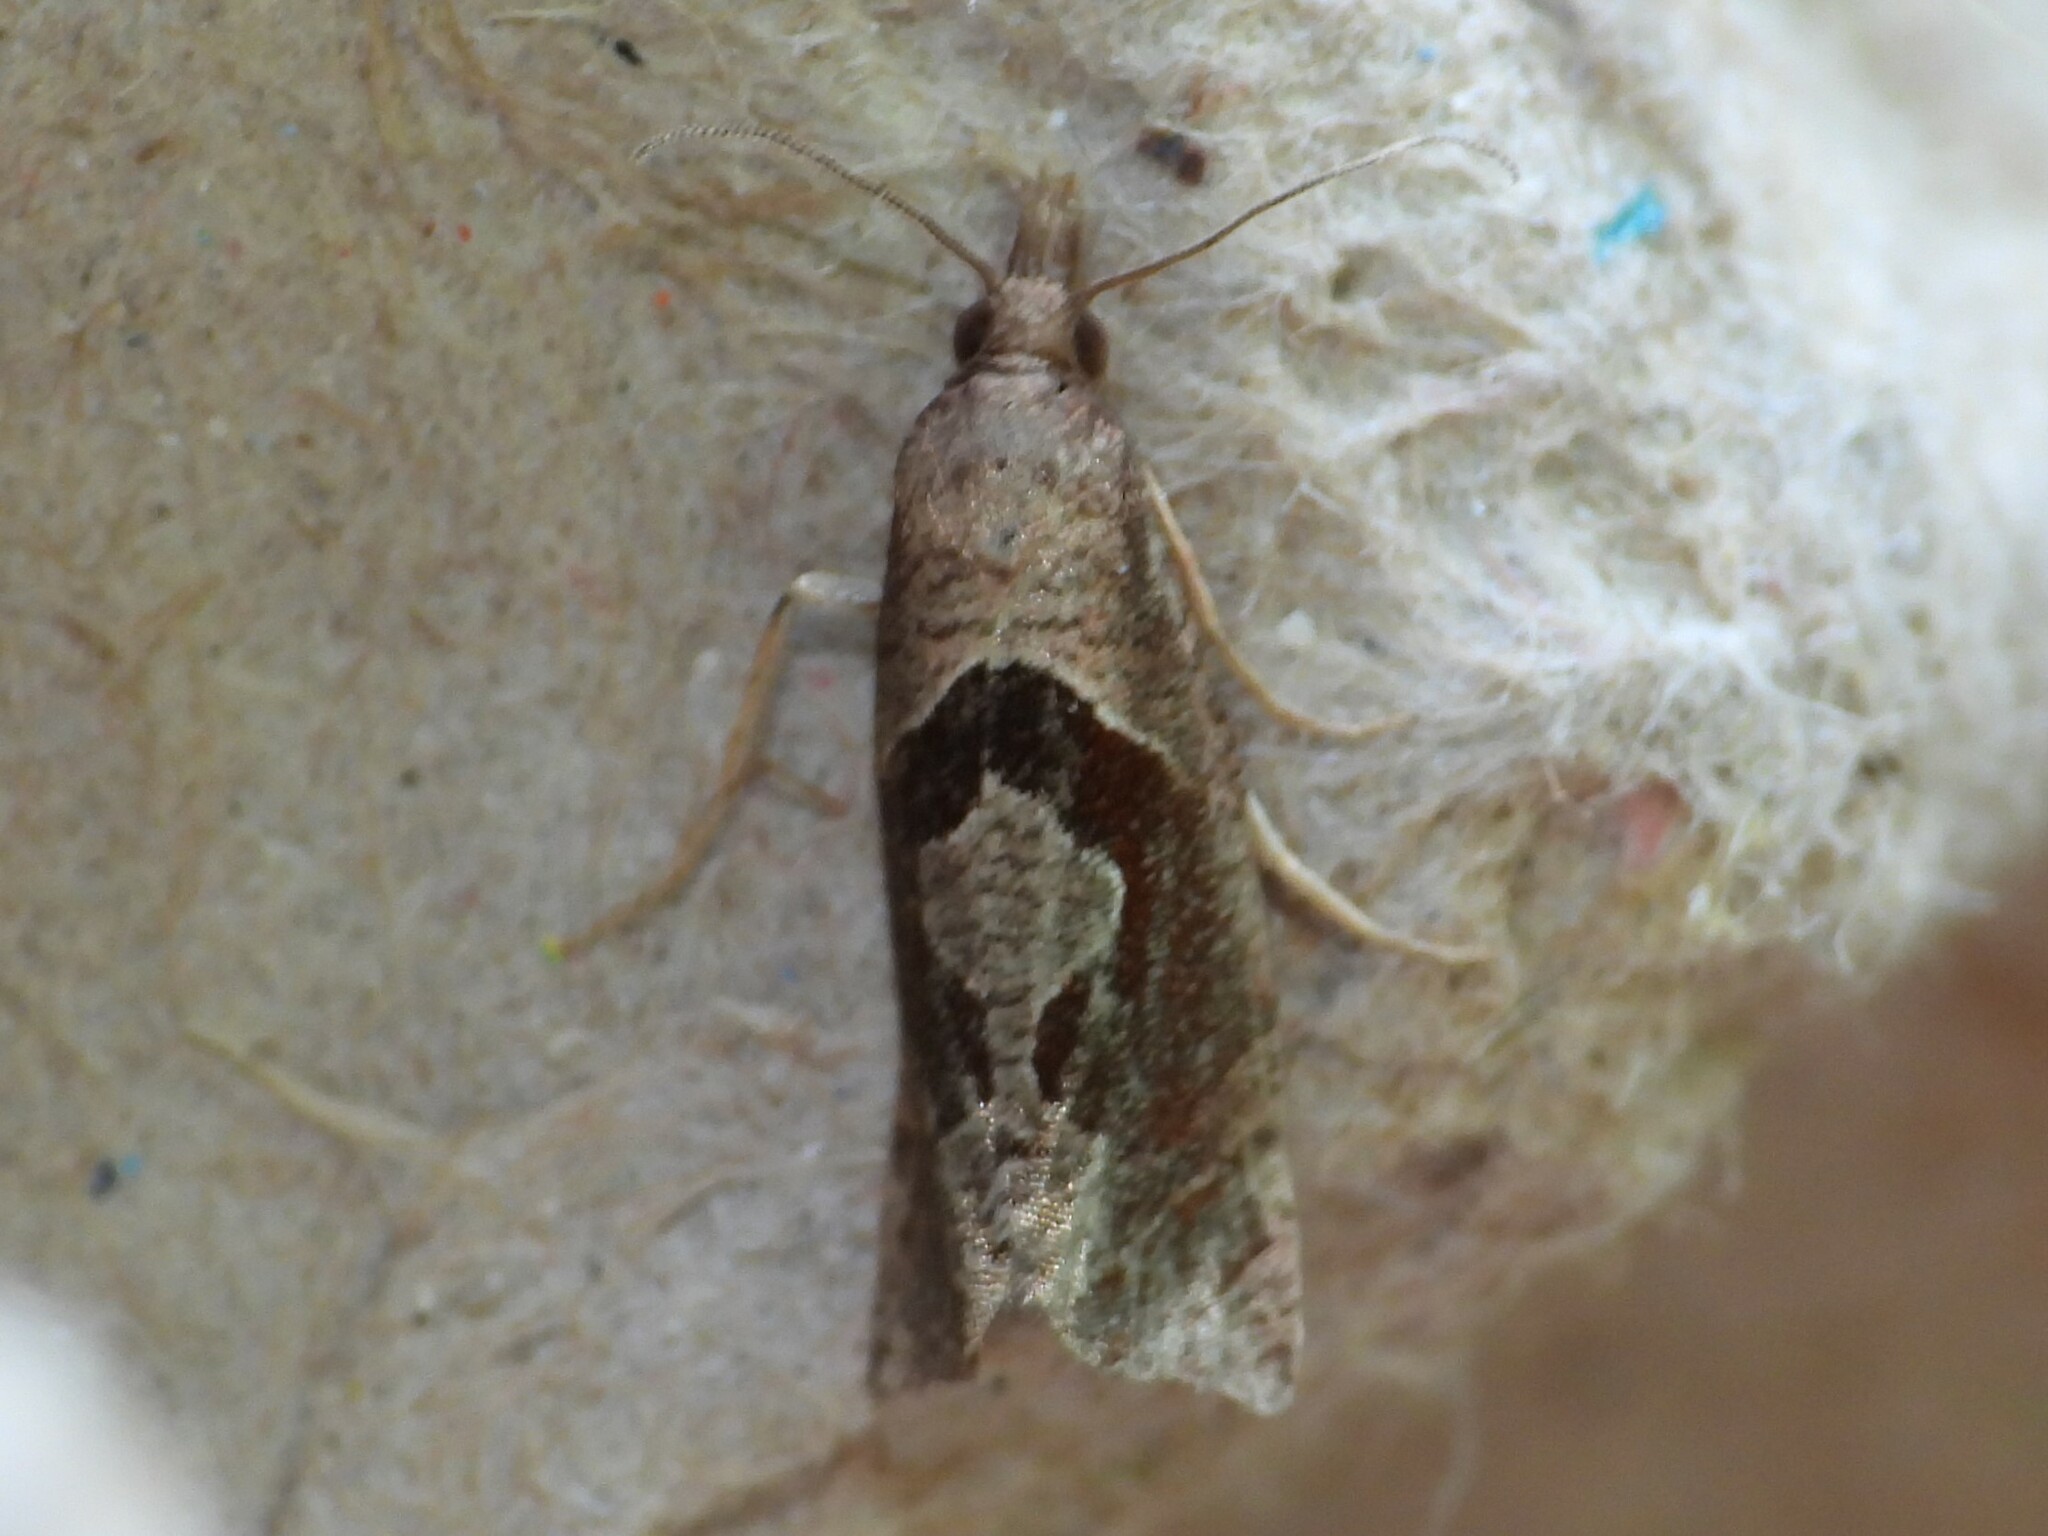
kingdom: Animalia
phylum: Arthropoda
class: Insecta
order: Lepidoptera
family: Tortricidae
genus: Pelochrista
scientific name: Pelochrista similiana
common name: Similar eucosma
